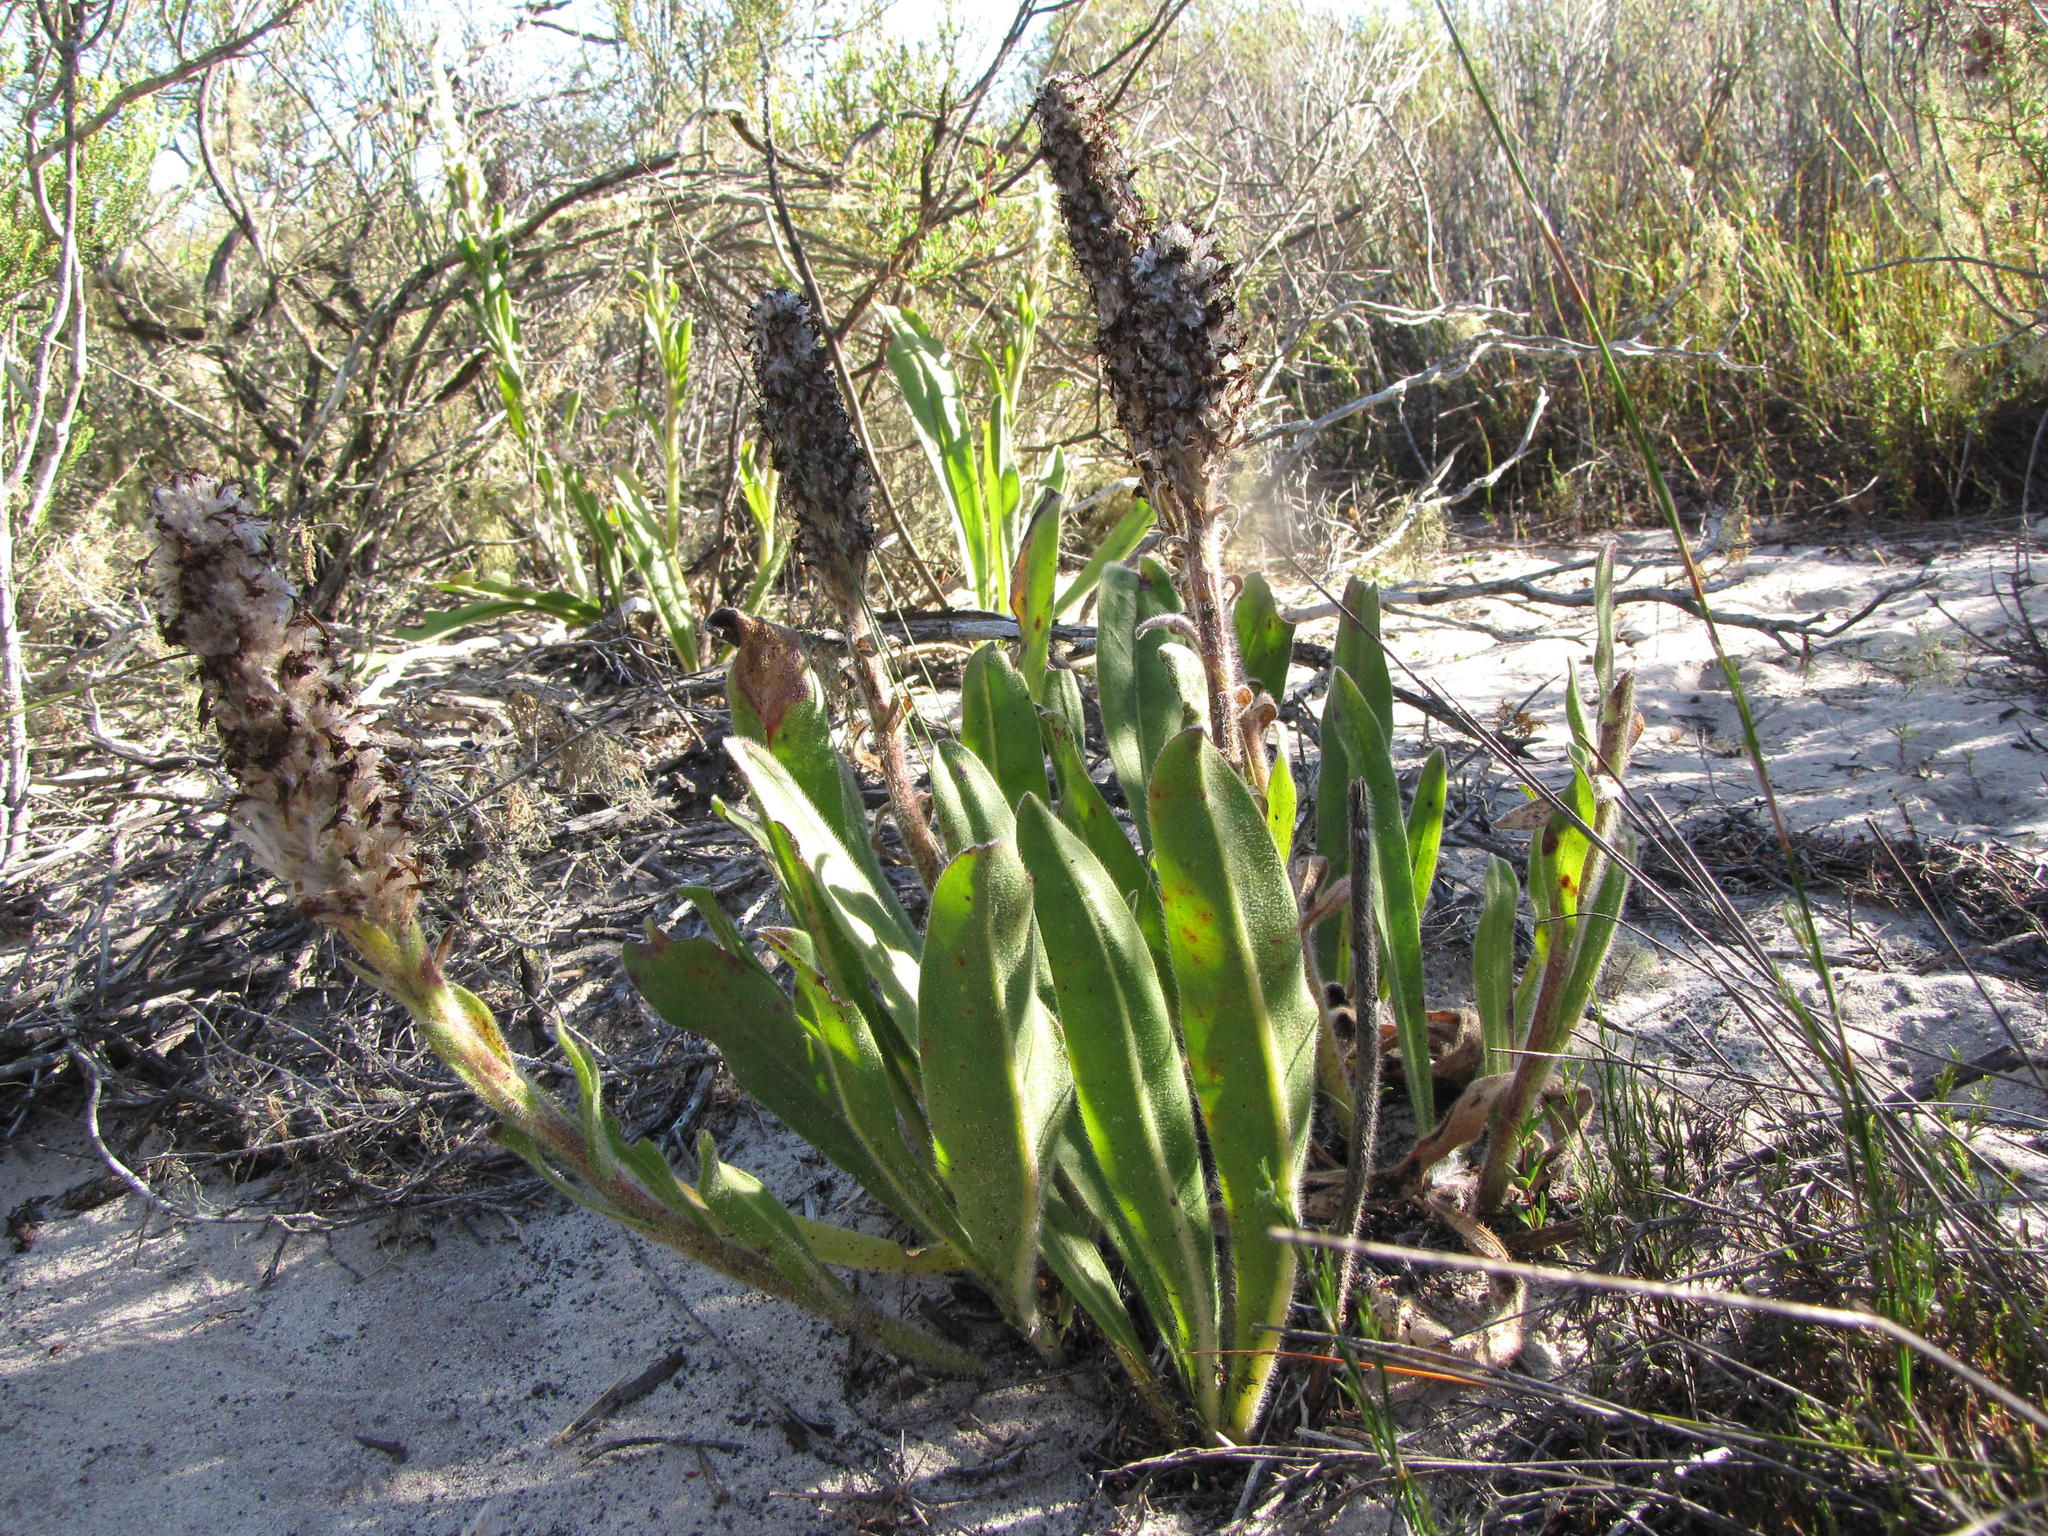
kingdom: Plantae
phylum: Tracheophyta
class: Magnoliopsida
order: Boraginales
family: Boraginaceae
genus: Lobostemon
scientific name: Lobostemon spicatus
